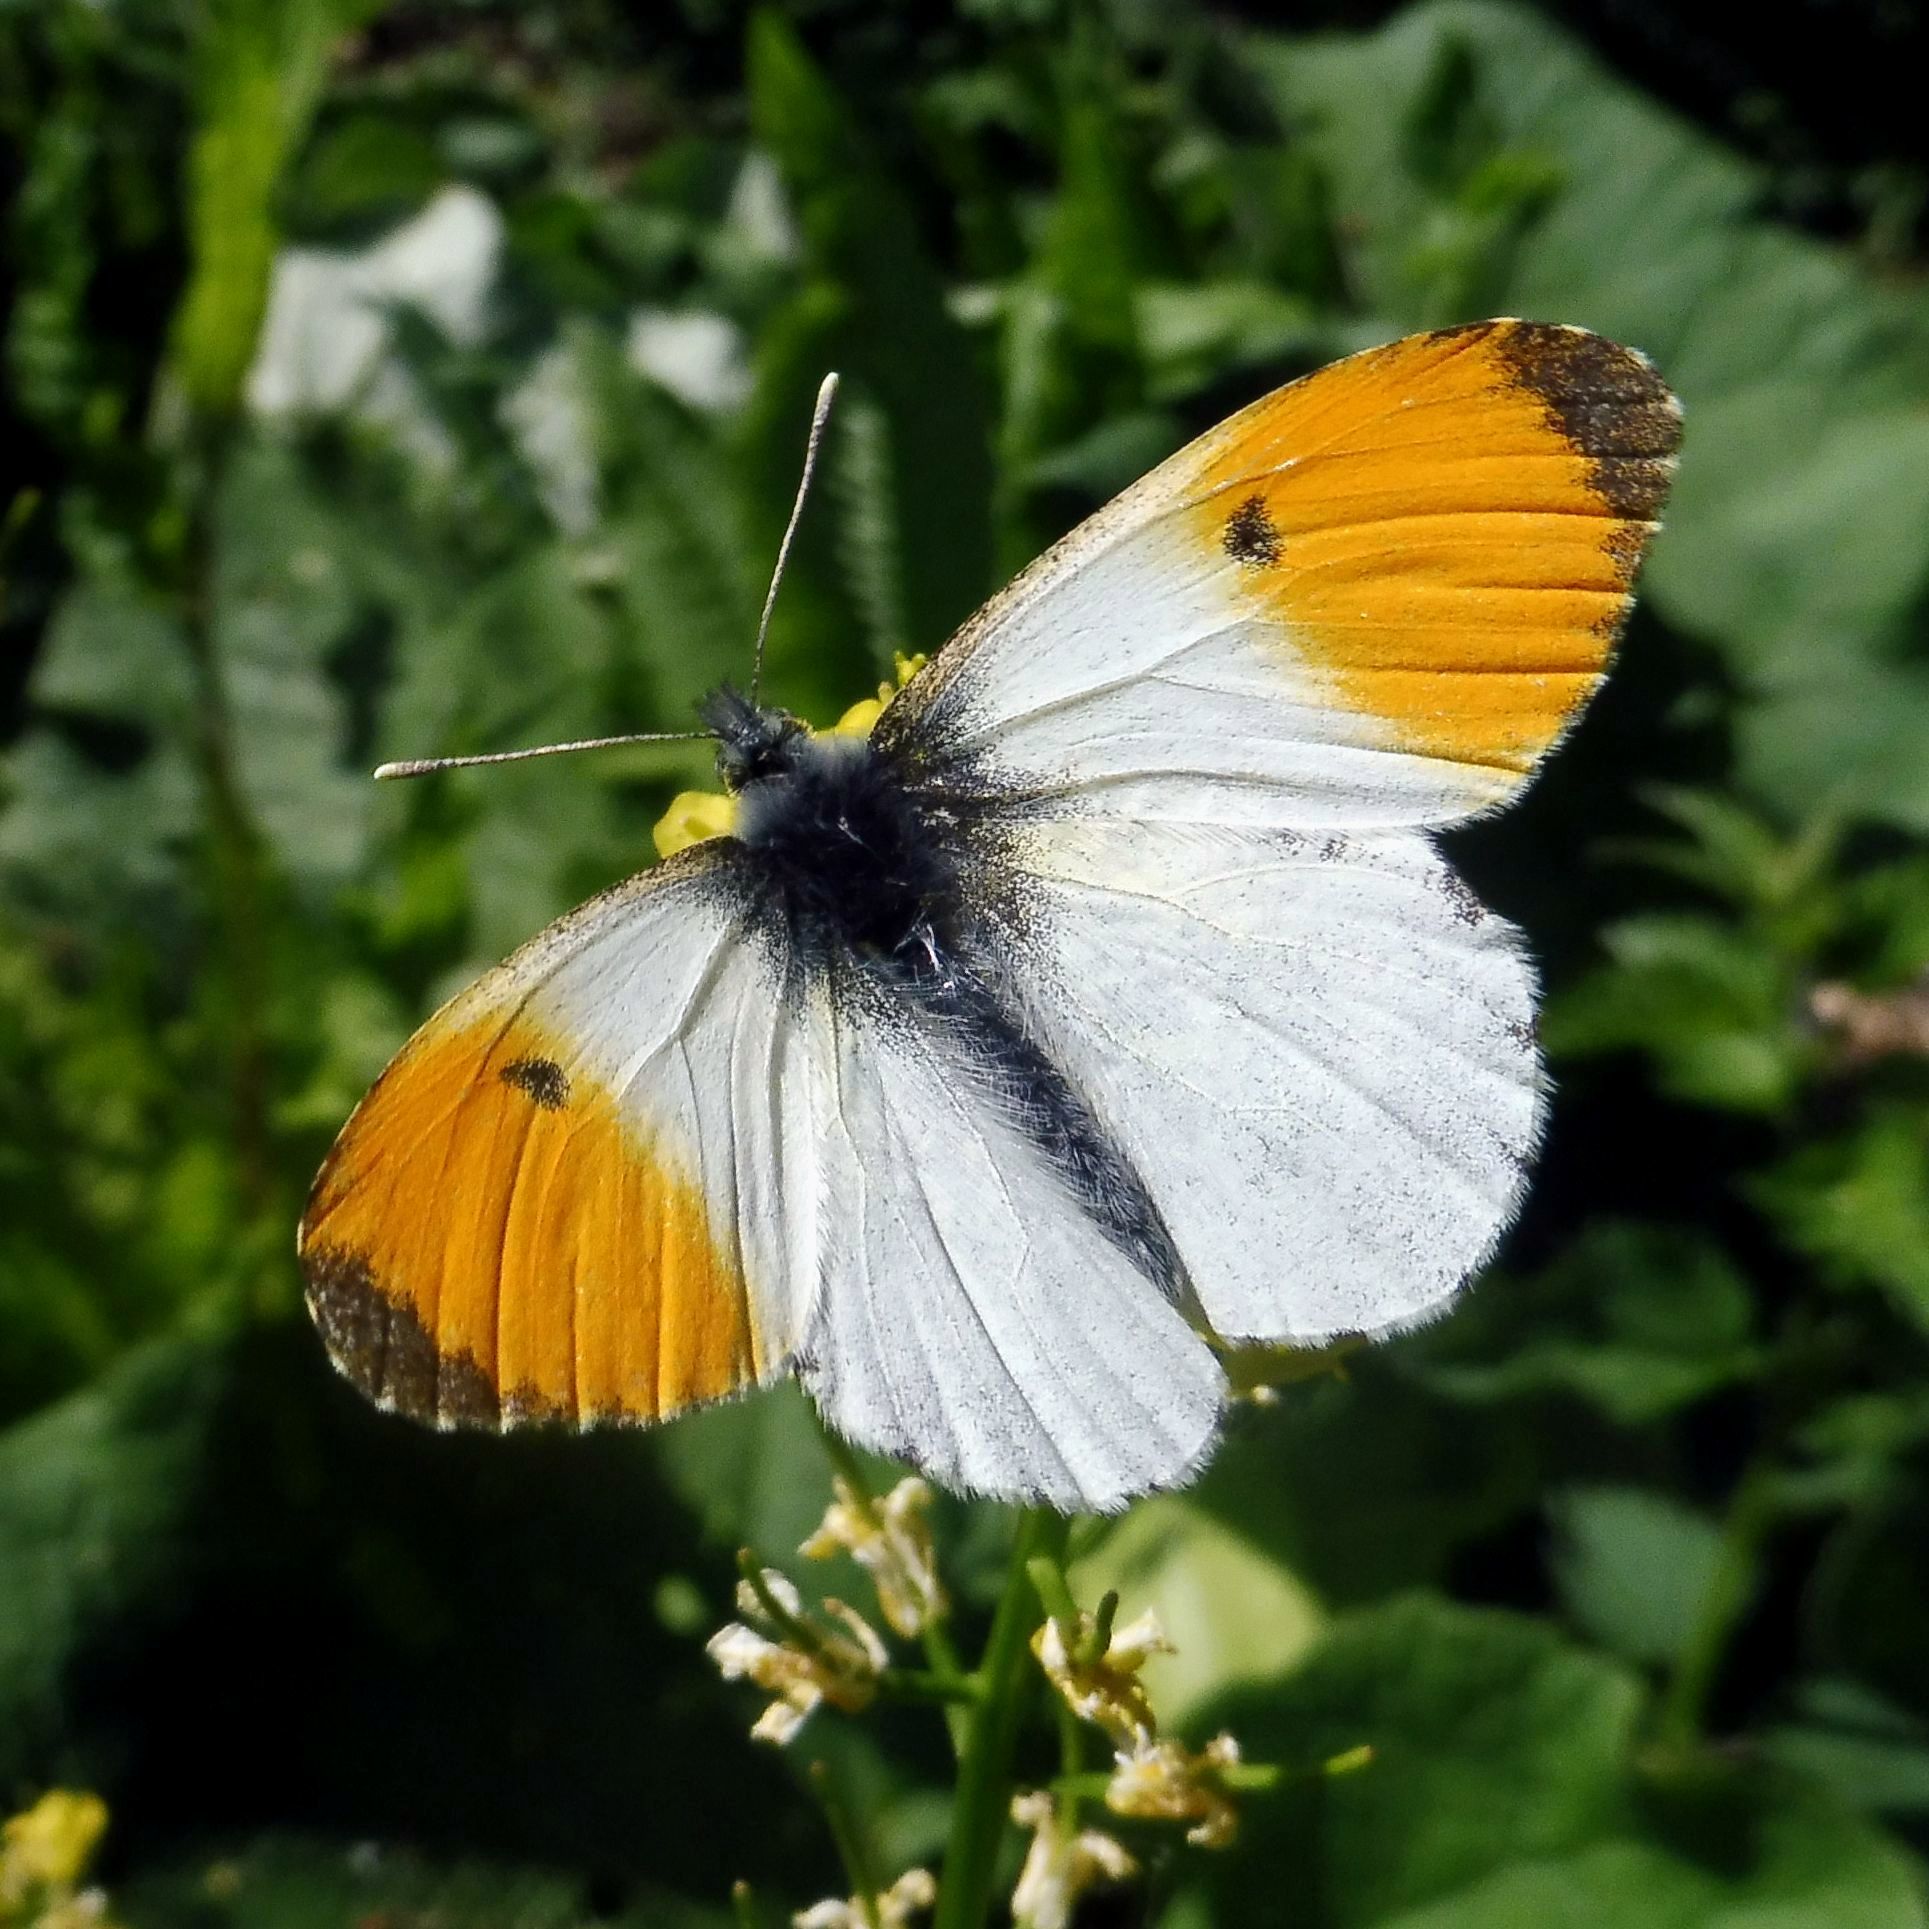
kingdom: Animalia
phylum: Arthropoda
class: Insecta
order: Lepidoptera
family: Pieridae
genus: Anthocharis
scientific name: Anthocharis cardamines
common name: Orange-tip
